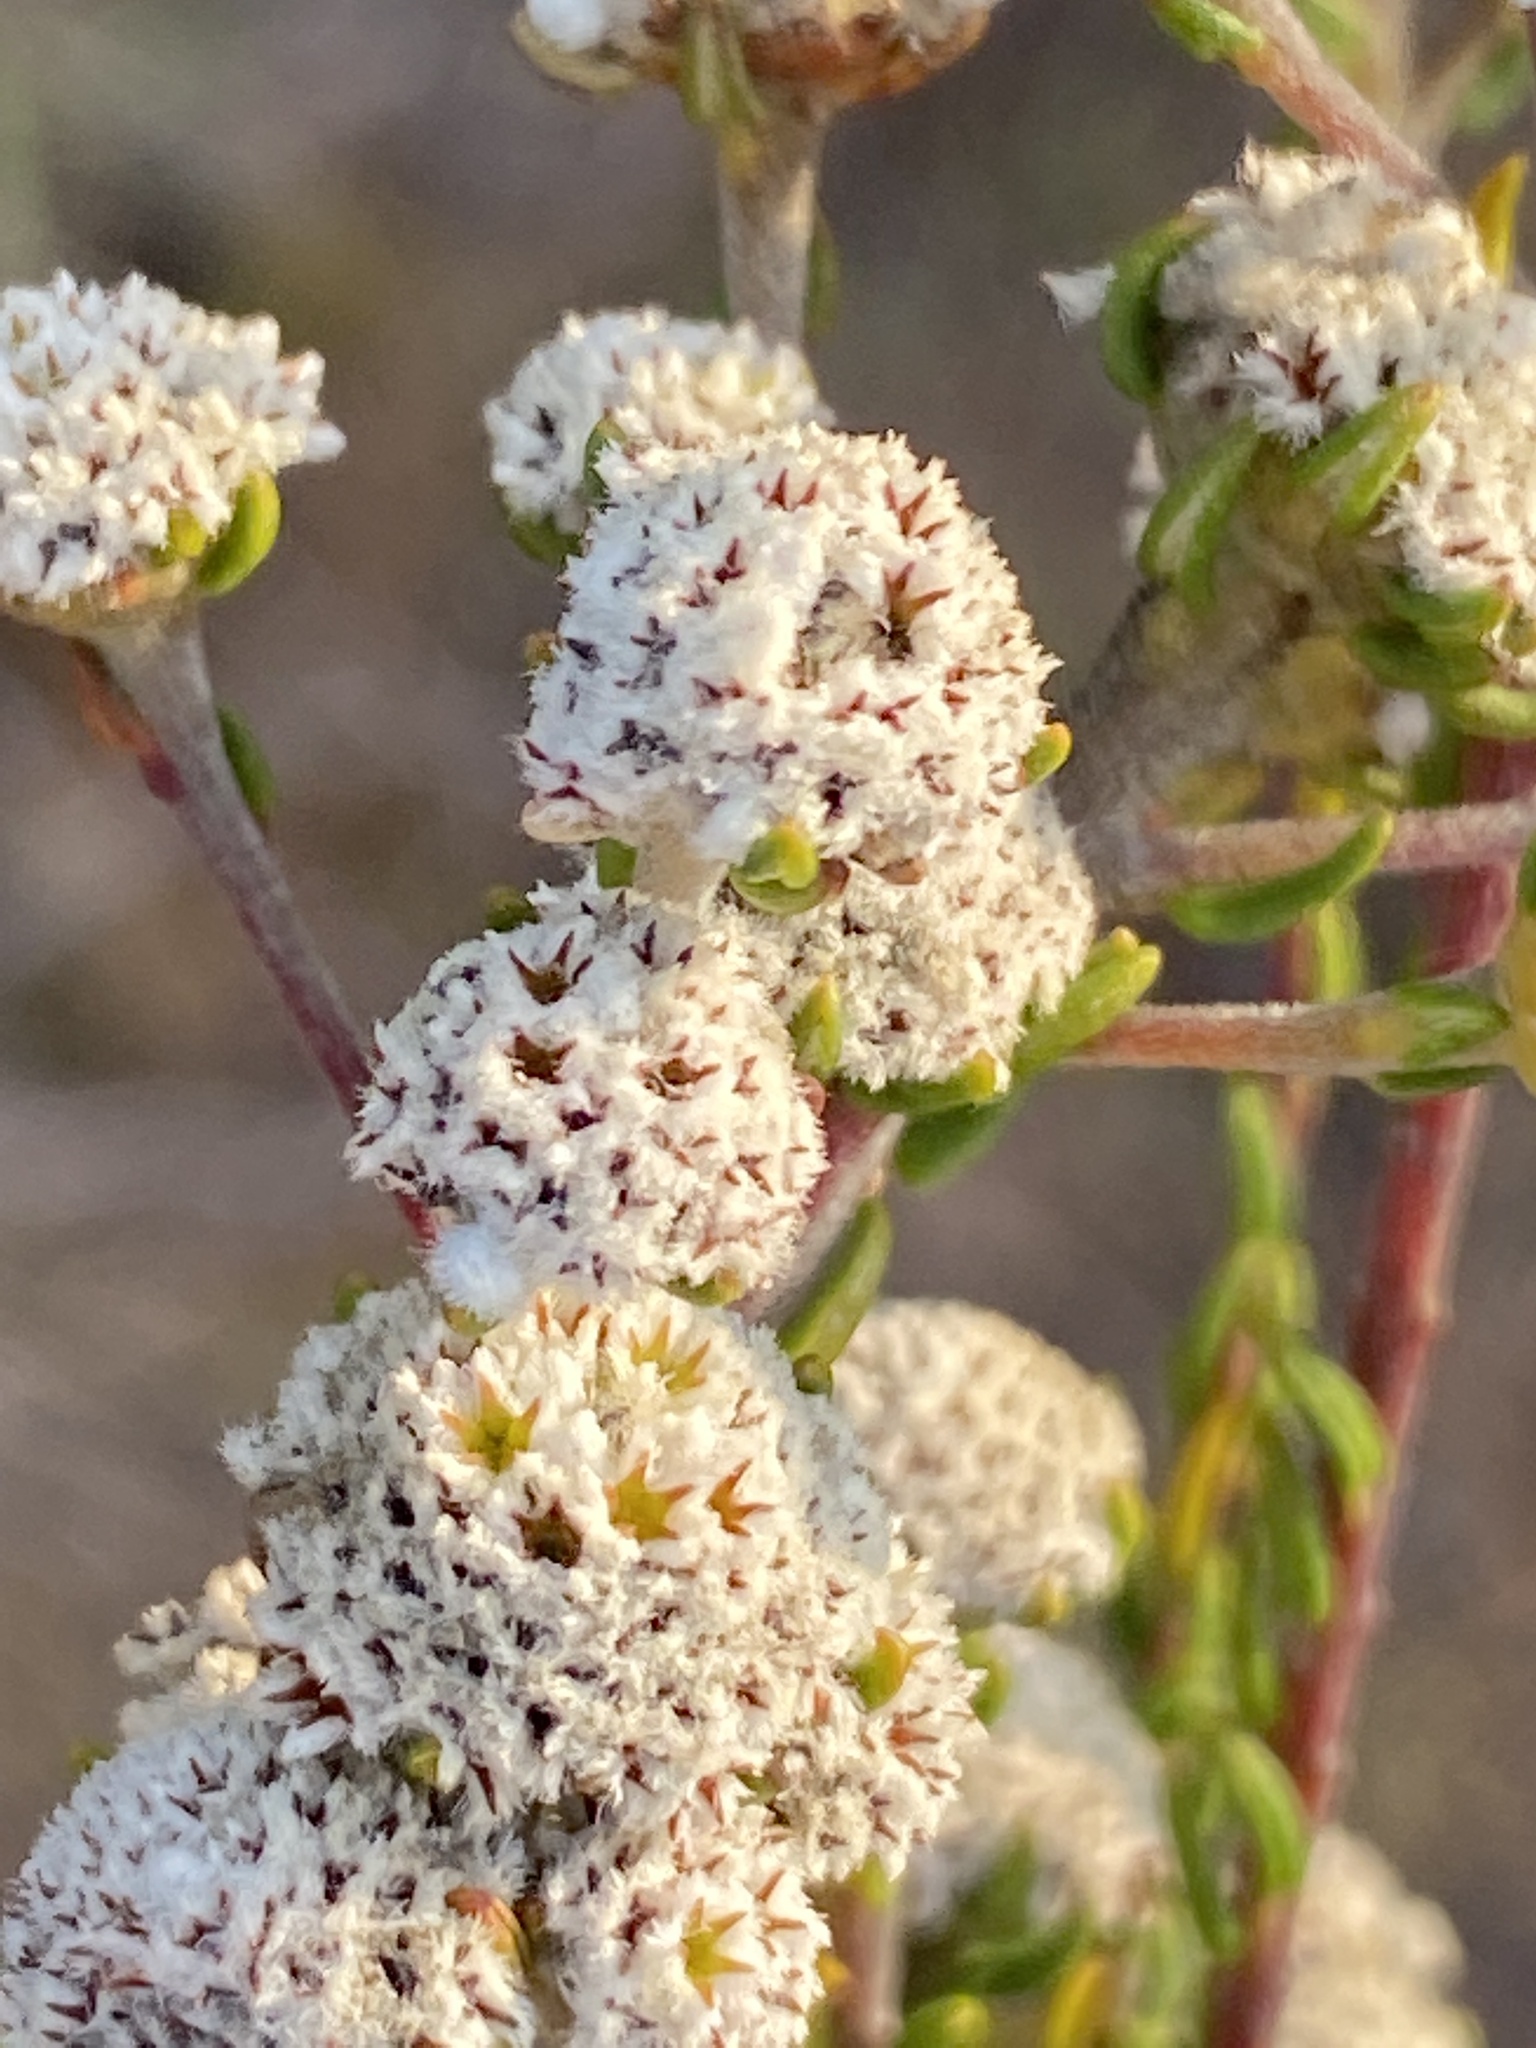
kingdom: Plantae
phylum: Tracheophyta
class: Magnoliopsida
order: Rosales
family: Rhamnaceae
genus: Phylica
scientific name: Phylica selaginoides
